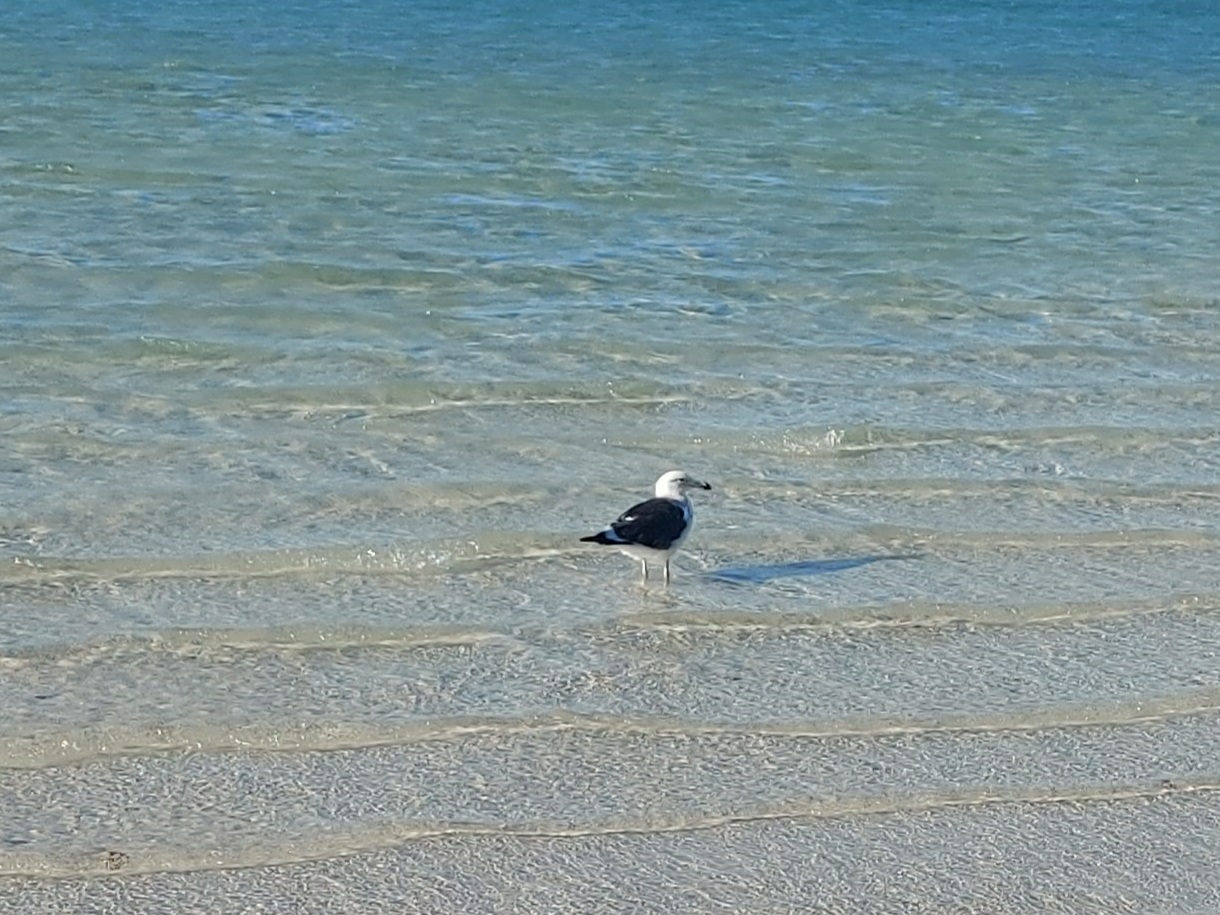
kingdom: Animalia
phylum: Chordata
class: Aves
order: Charadriiformes
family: Laridae
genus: Larus
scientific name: Larus dominicanus
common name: Kelp gull
